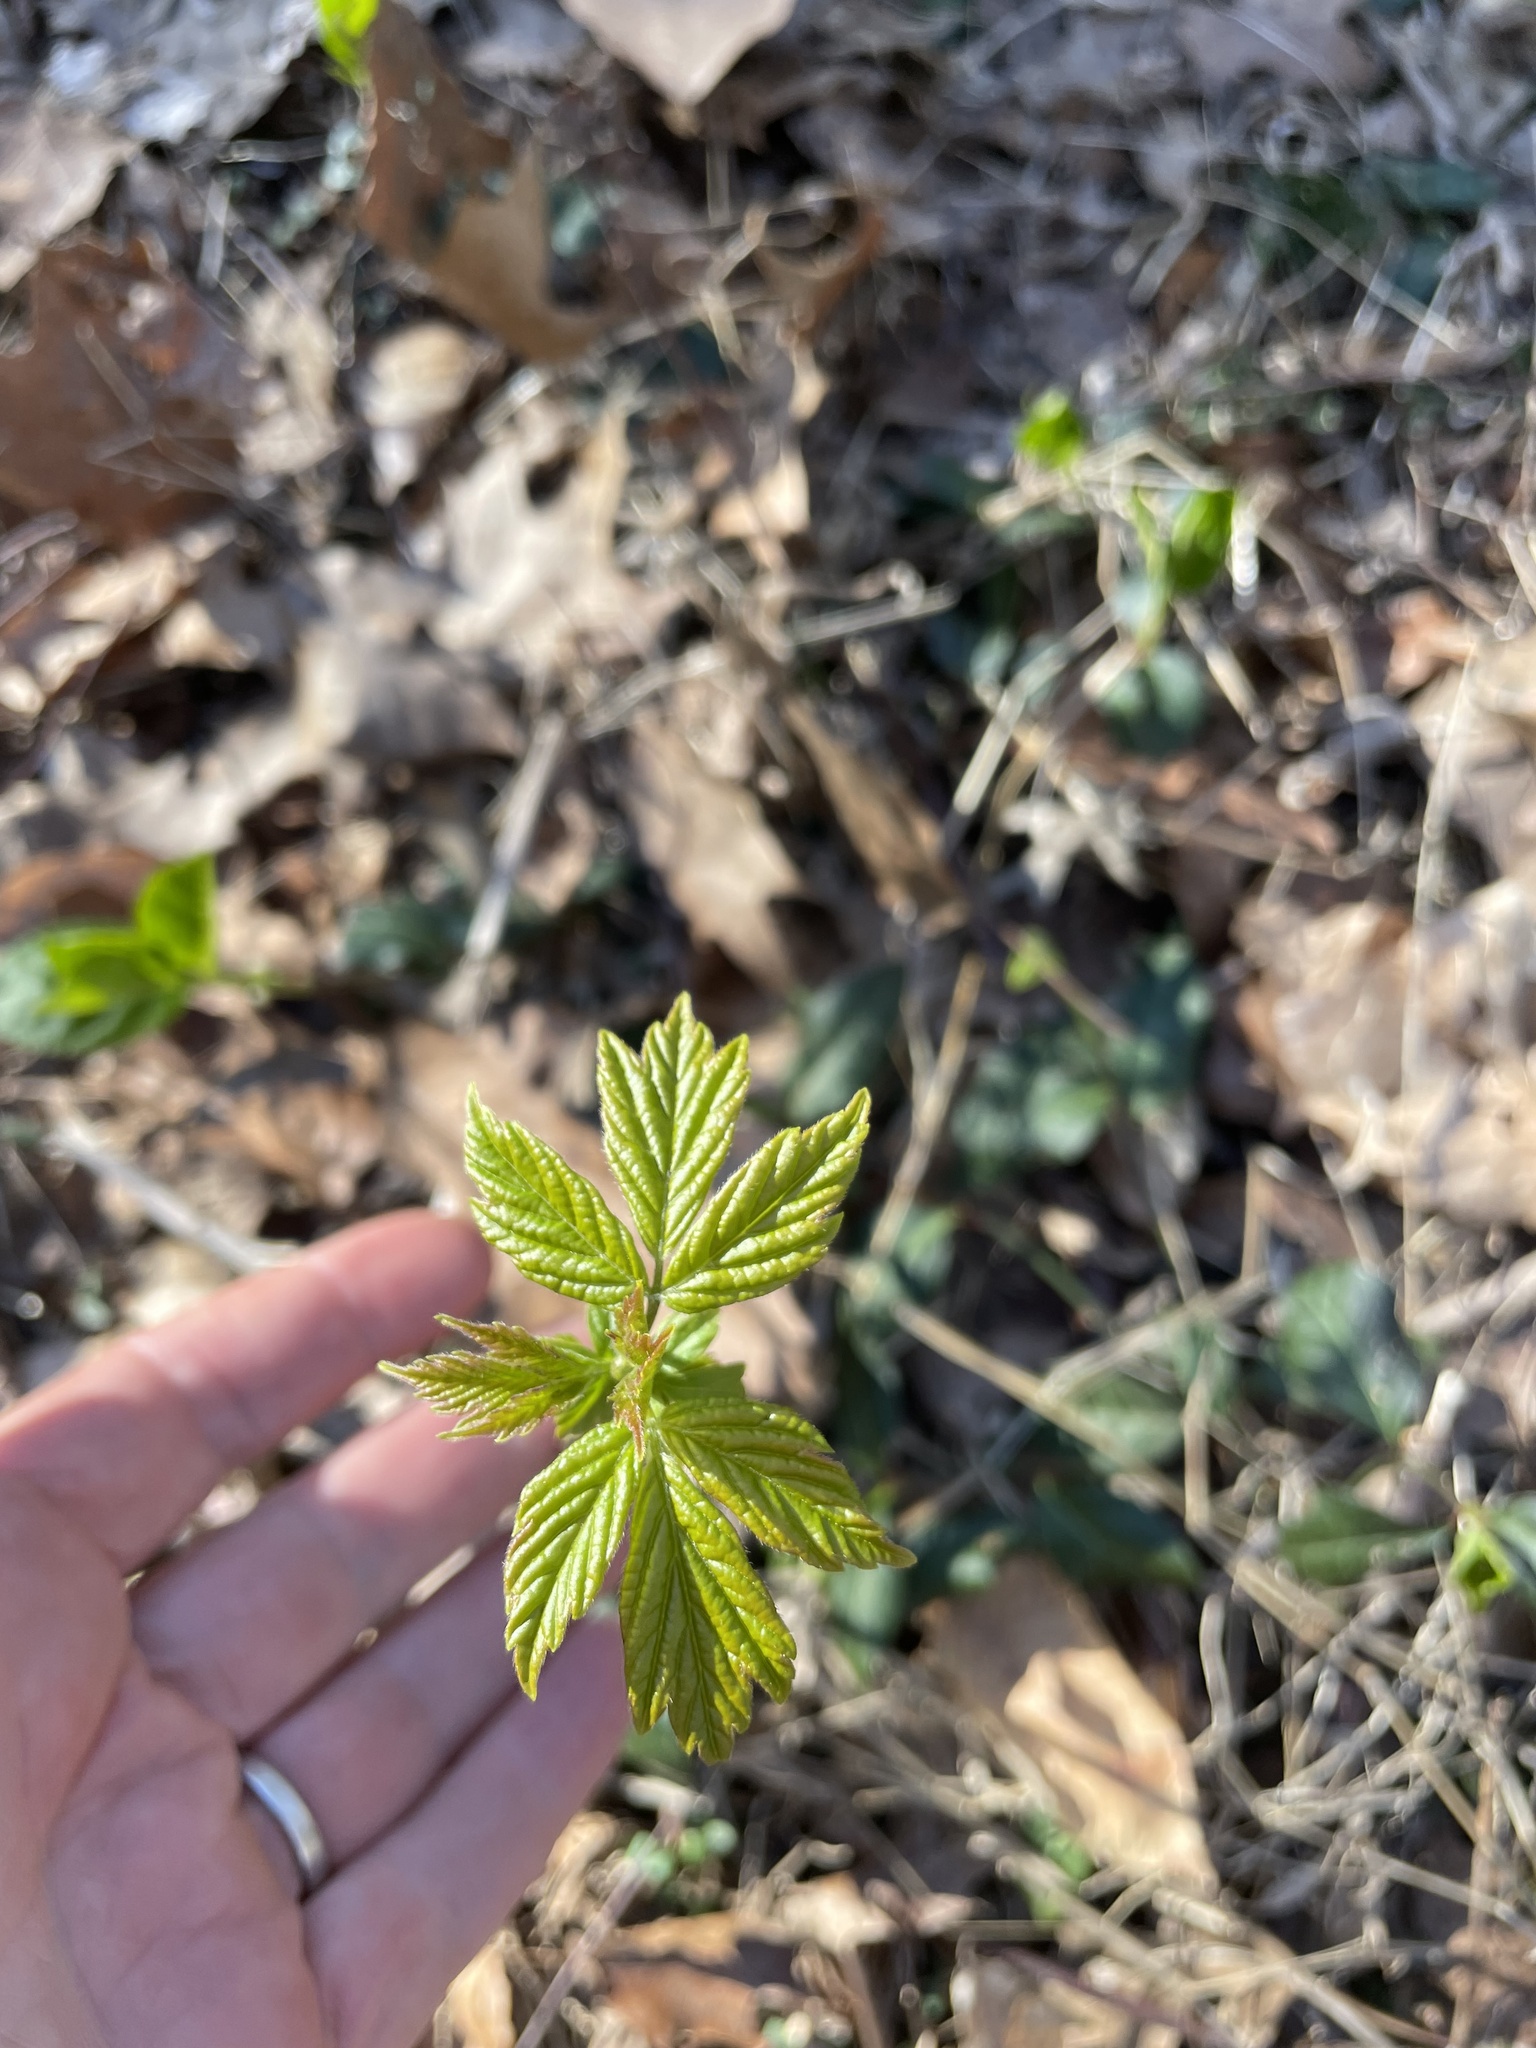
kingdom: Plantae
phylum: Tracheophyta
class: Magnoliopsida
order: Sapindales
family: Sapindaceae
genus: Acer
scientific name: Acer negundo
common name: Ashleaf maple
